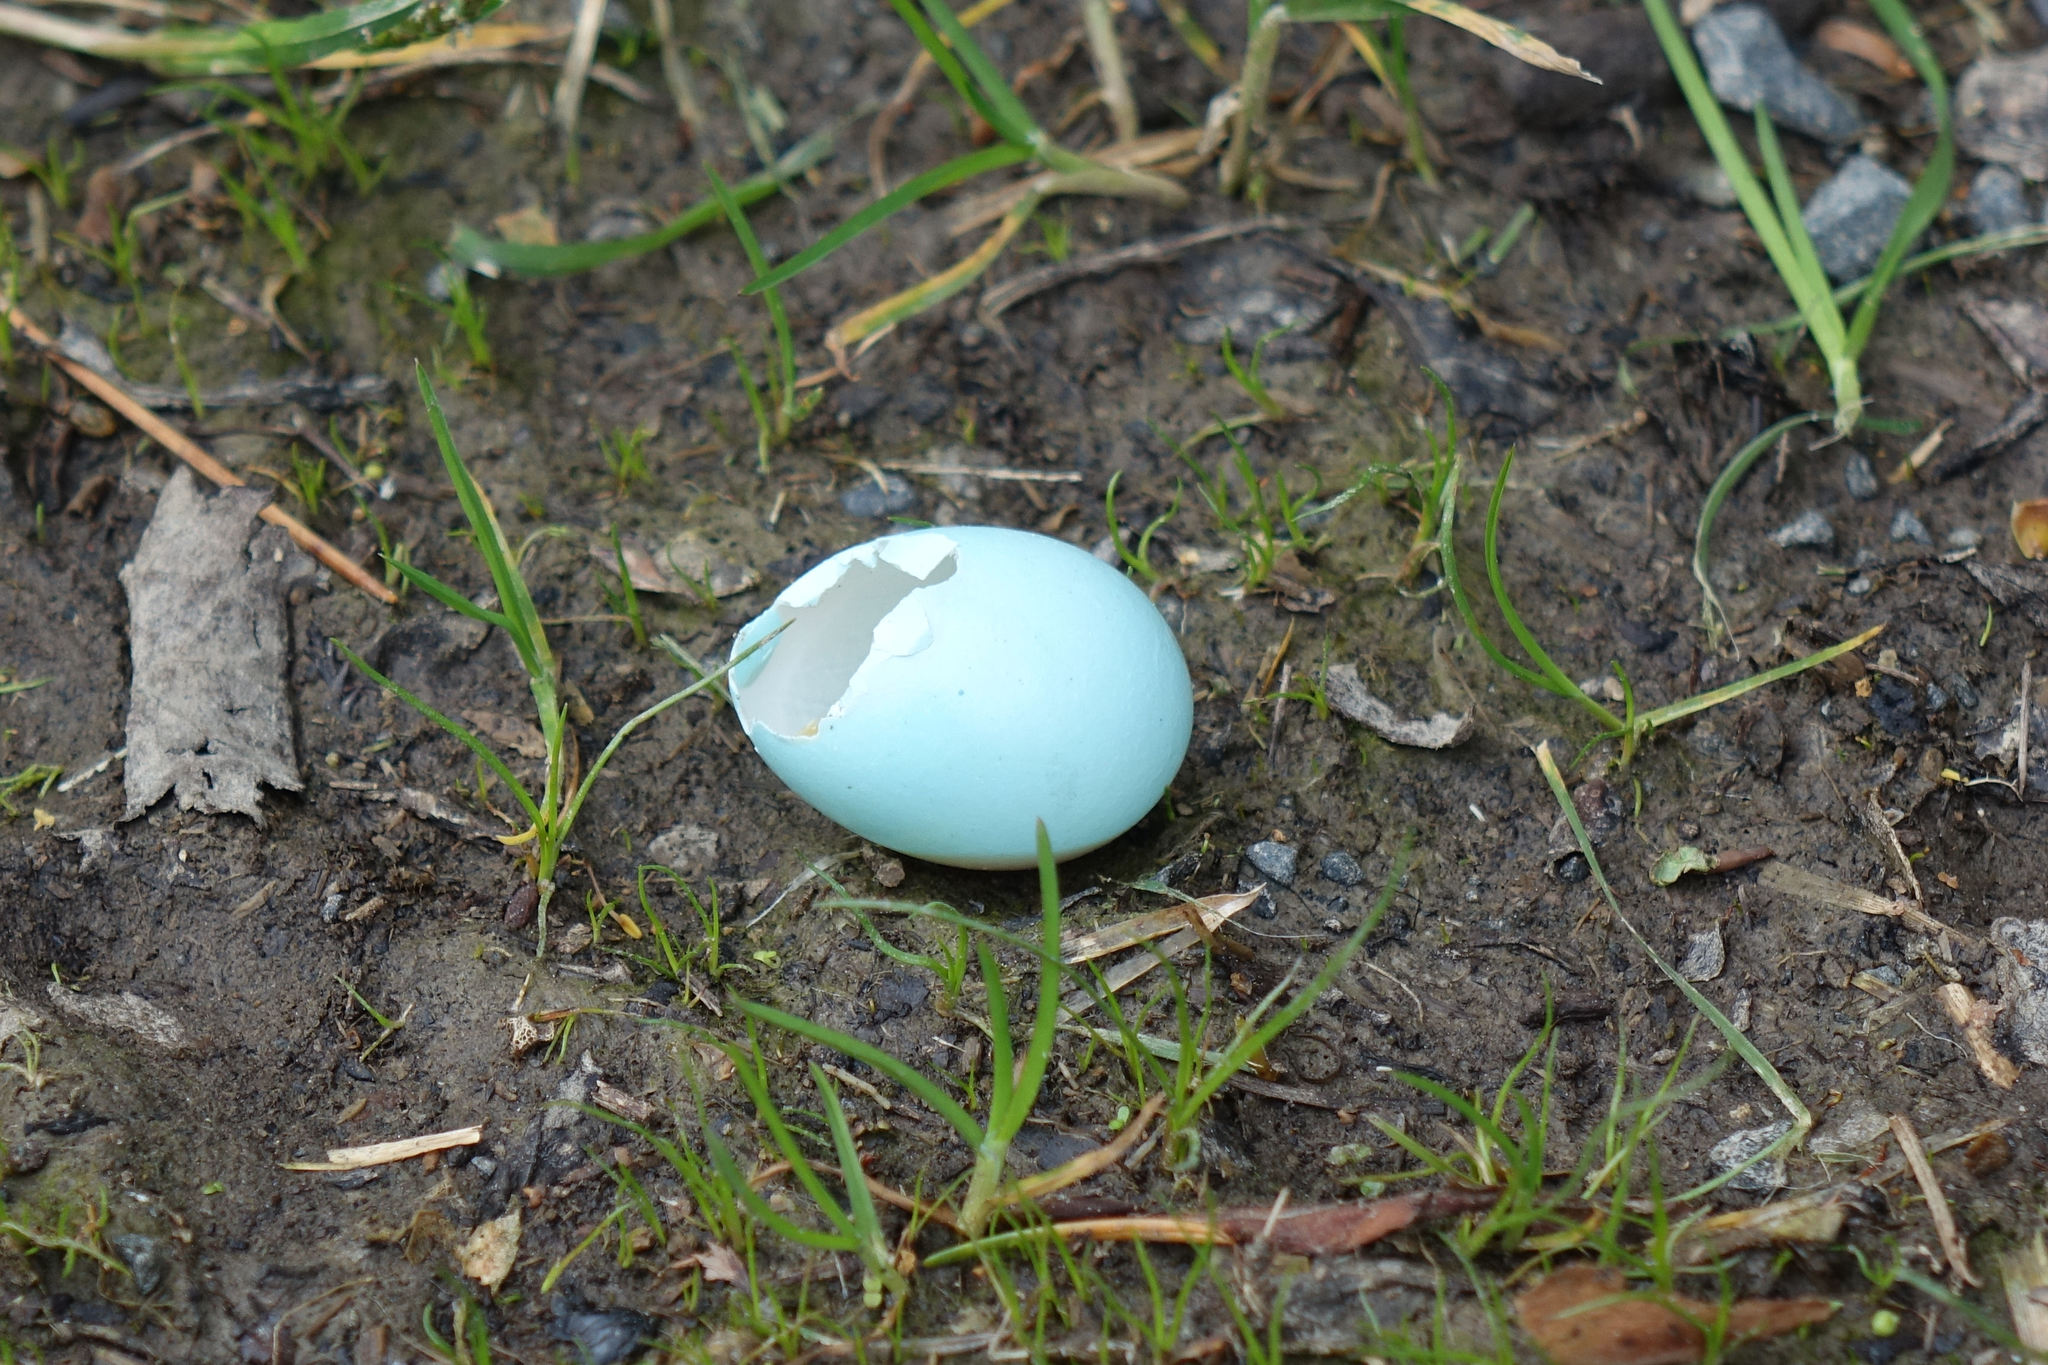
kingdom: Animalia
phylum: Chordata
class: Aves
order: Passeriformes
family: Turdidae
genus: Turdus
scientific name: Turdus philomelos
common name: Song thrush
